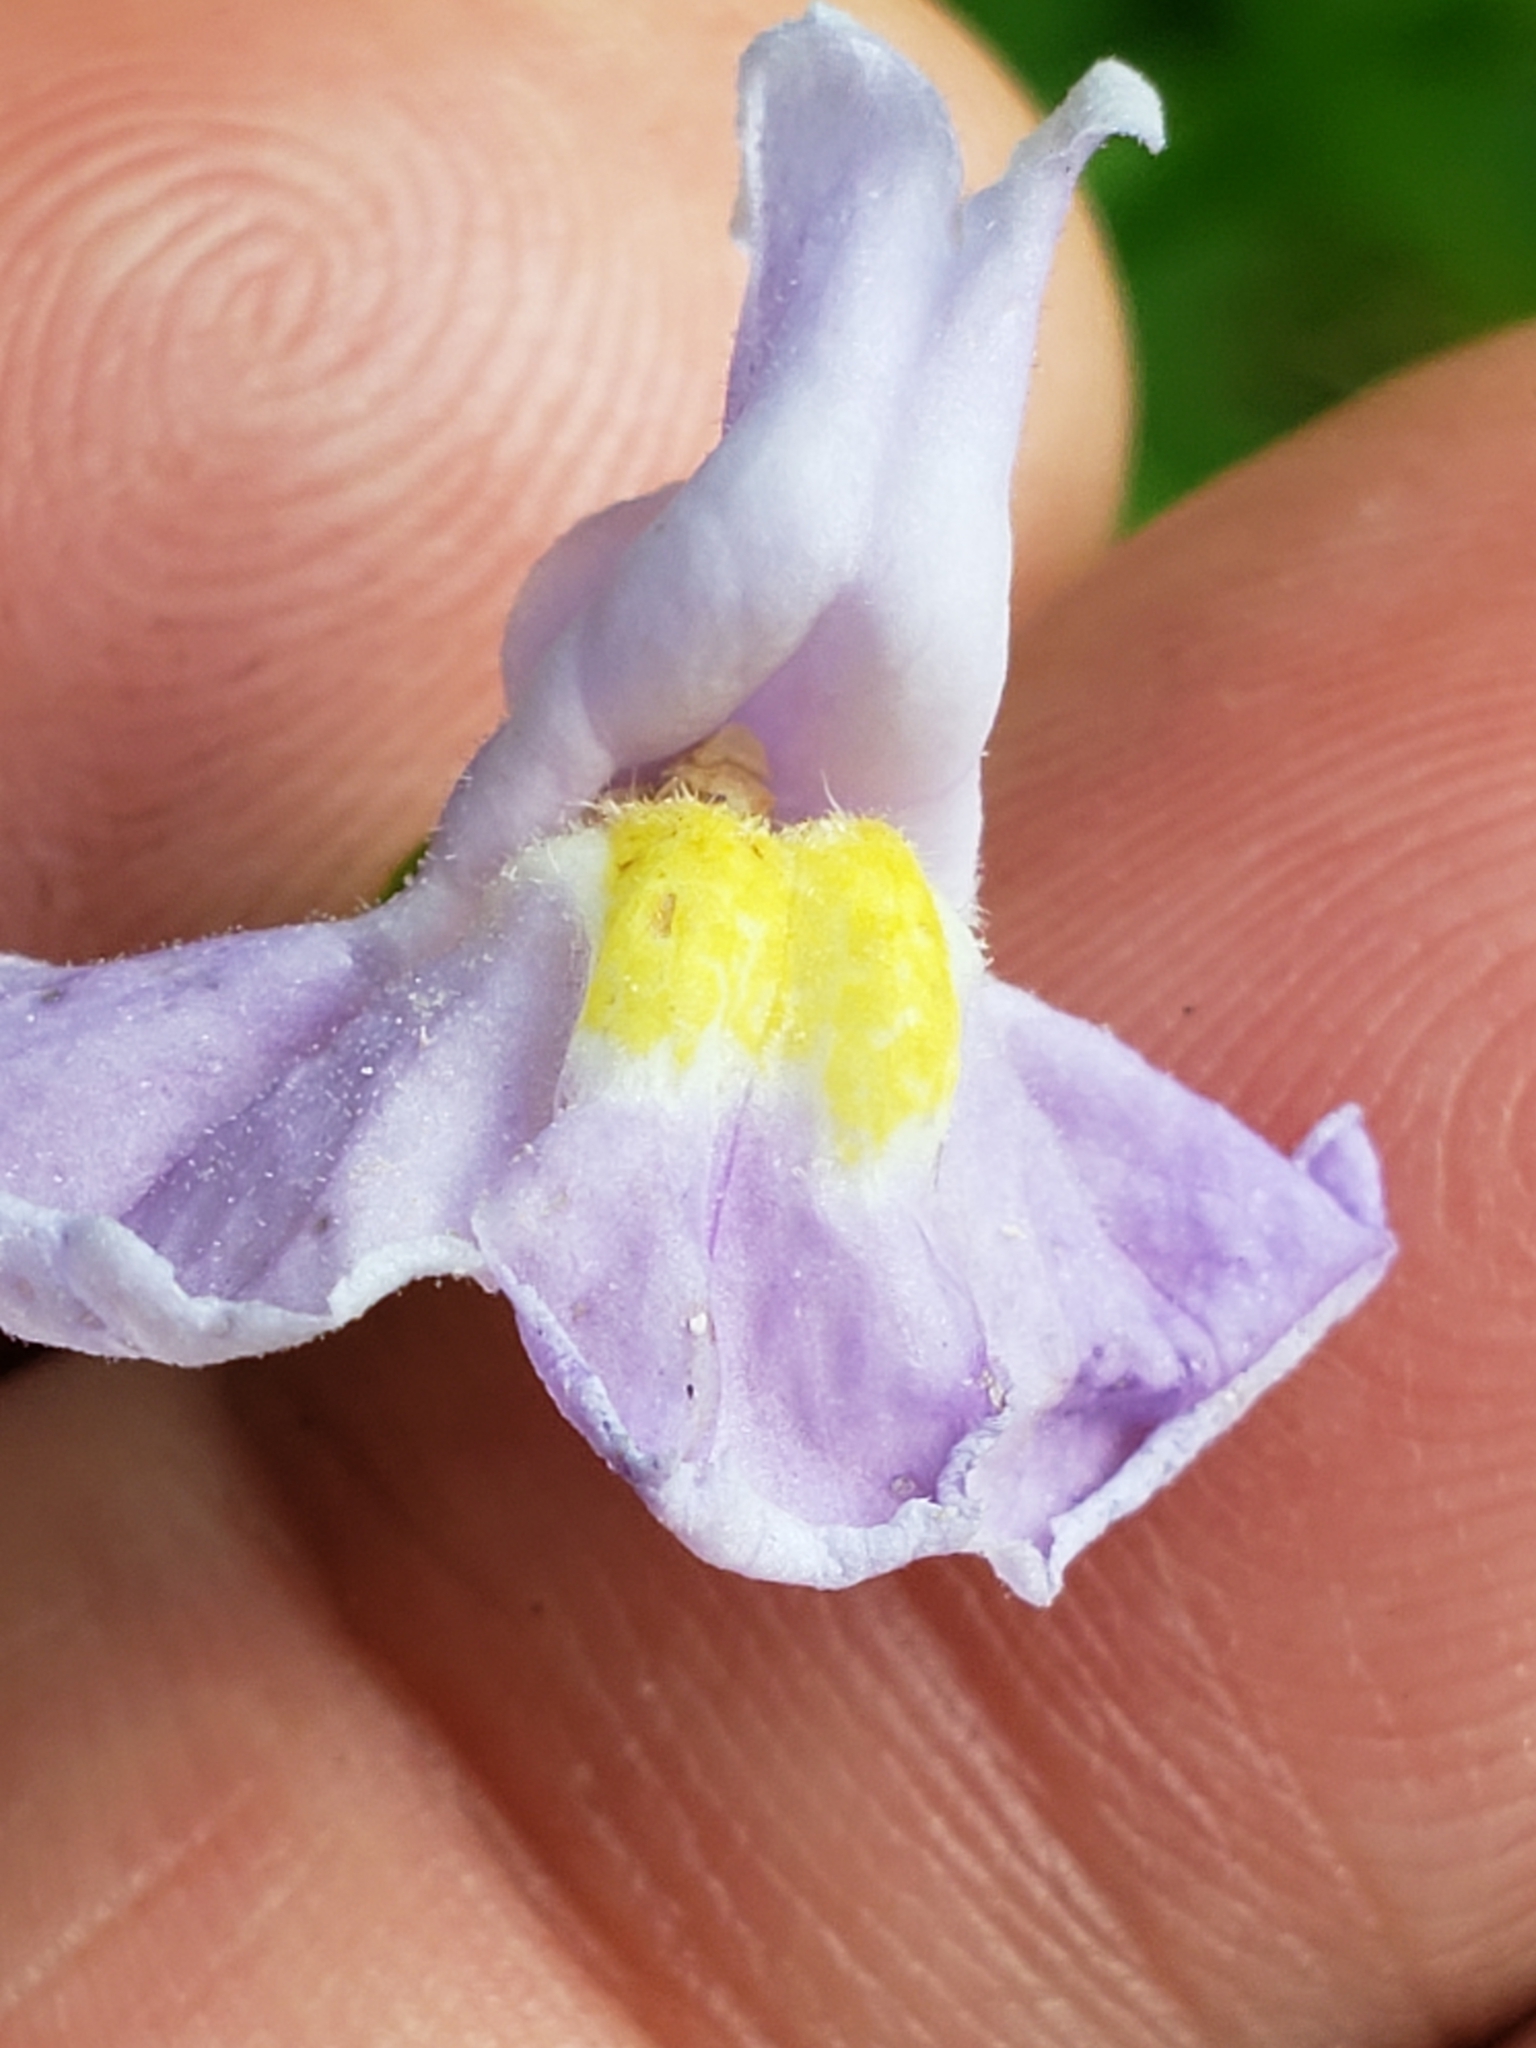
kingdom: Plantae
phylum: Tracheophyta
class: Magnoliopsida
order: Lamiales
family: Phrymaceae
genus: Mimulus
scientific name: Mimulus ringens
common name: Allegheny monkeyflower
